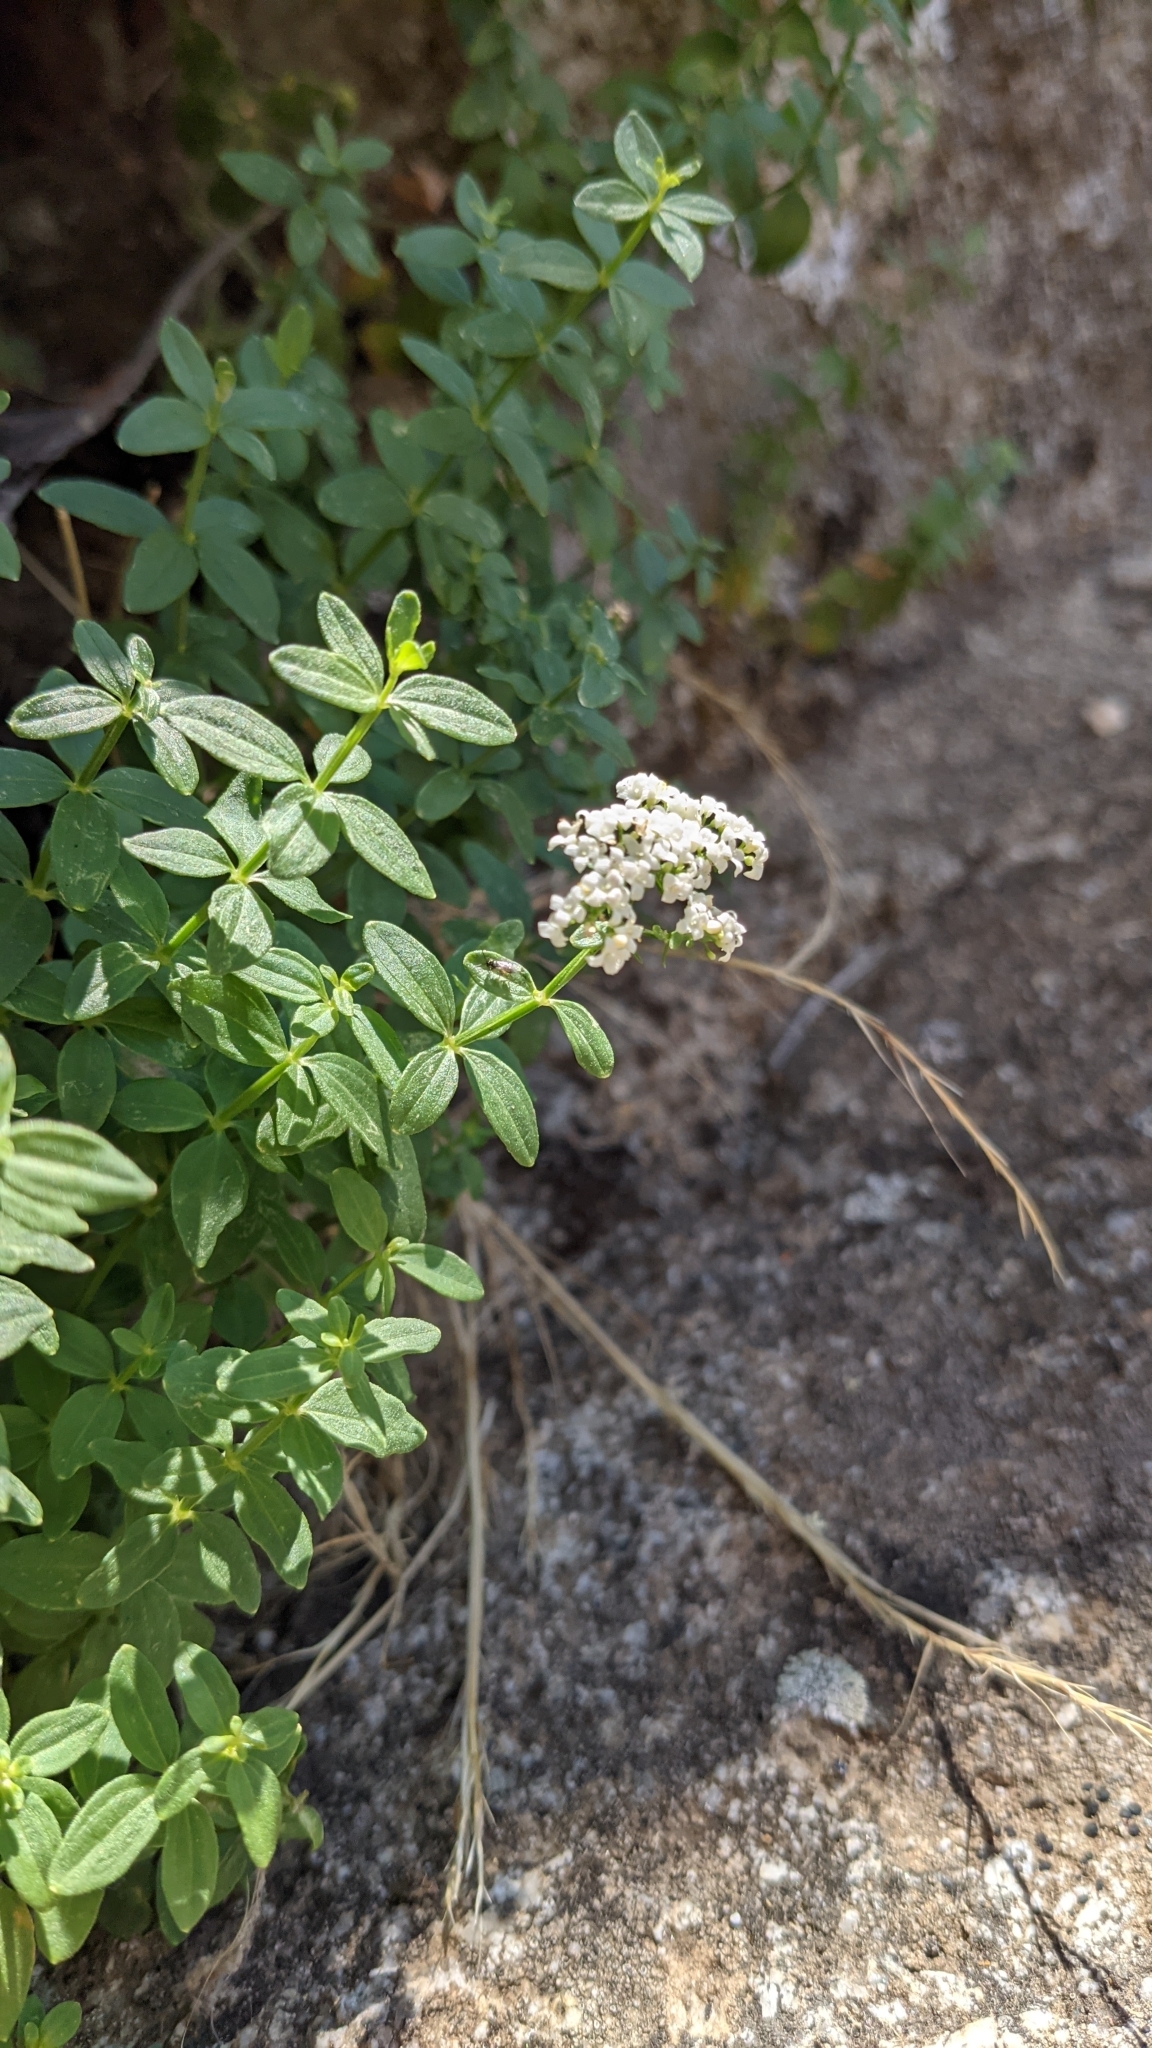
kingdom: Plantae
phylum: Tracheophyta
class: Magnoliopsida
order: Gentianales
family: Rubiaceae
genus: Galium
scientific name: Galium broterianum
